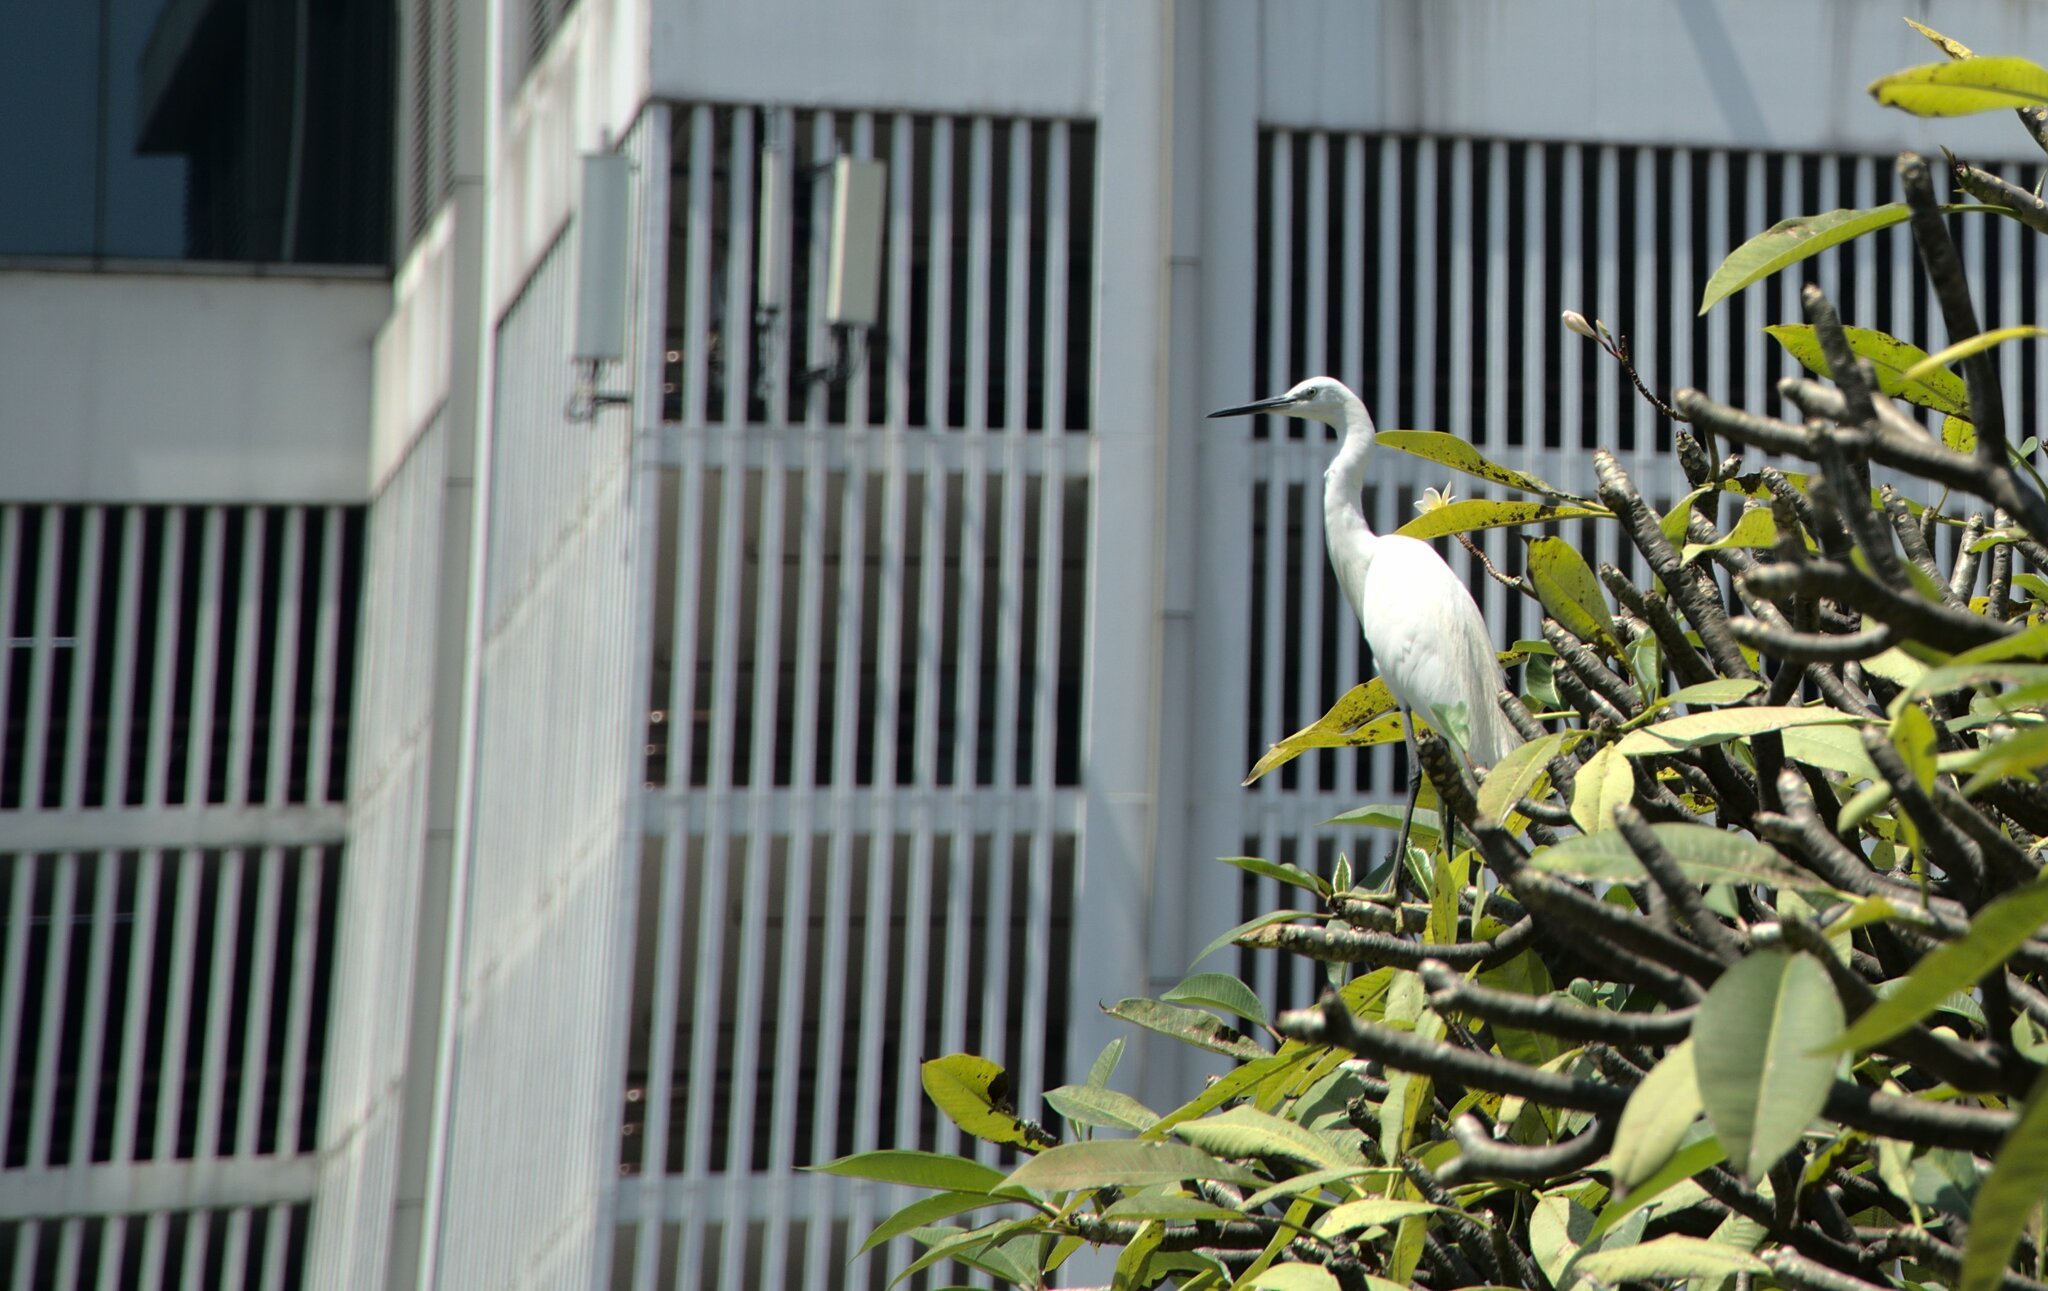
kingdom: Animalia
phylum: Chordata
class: Aves
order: Pelecaniformes
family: Ardeidae
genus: Egretta
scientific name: Egretta garzetta
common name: Little egret
